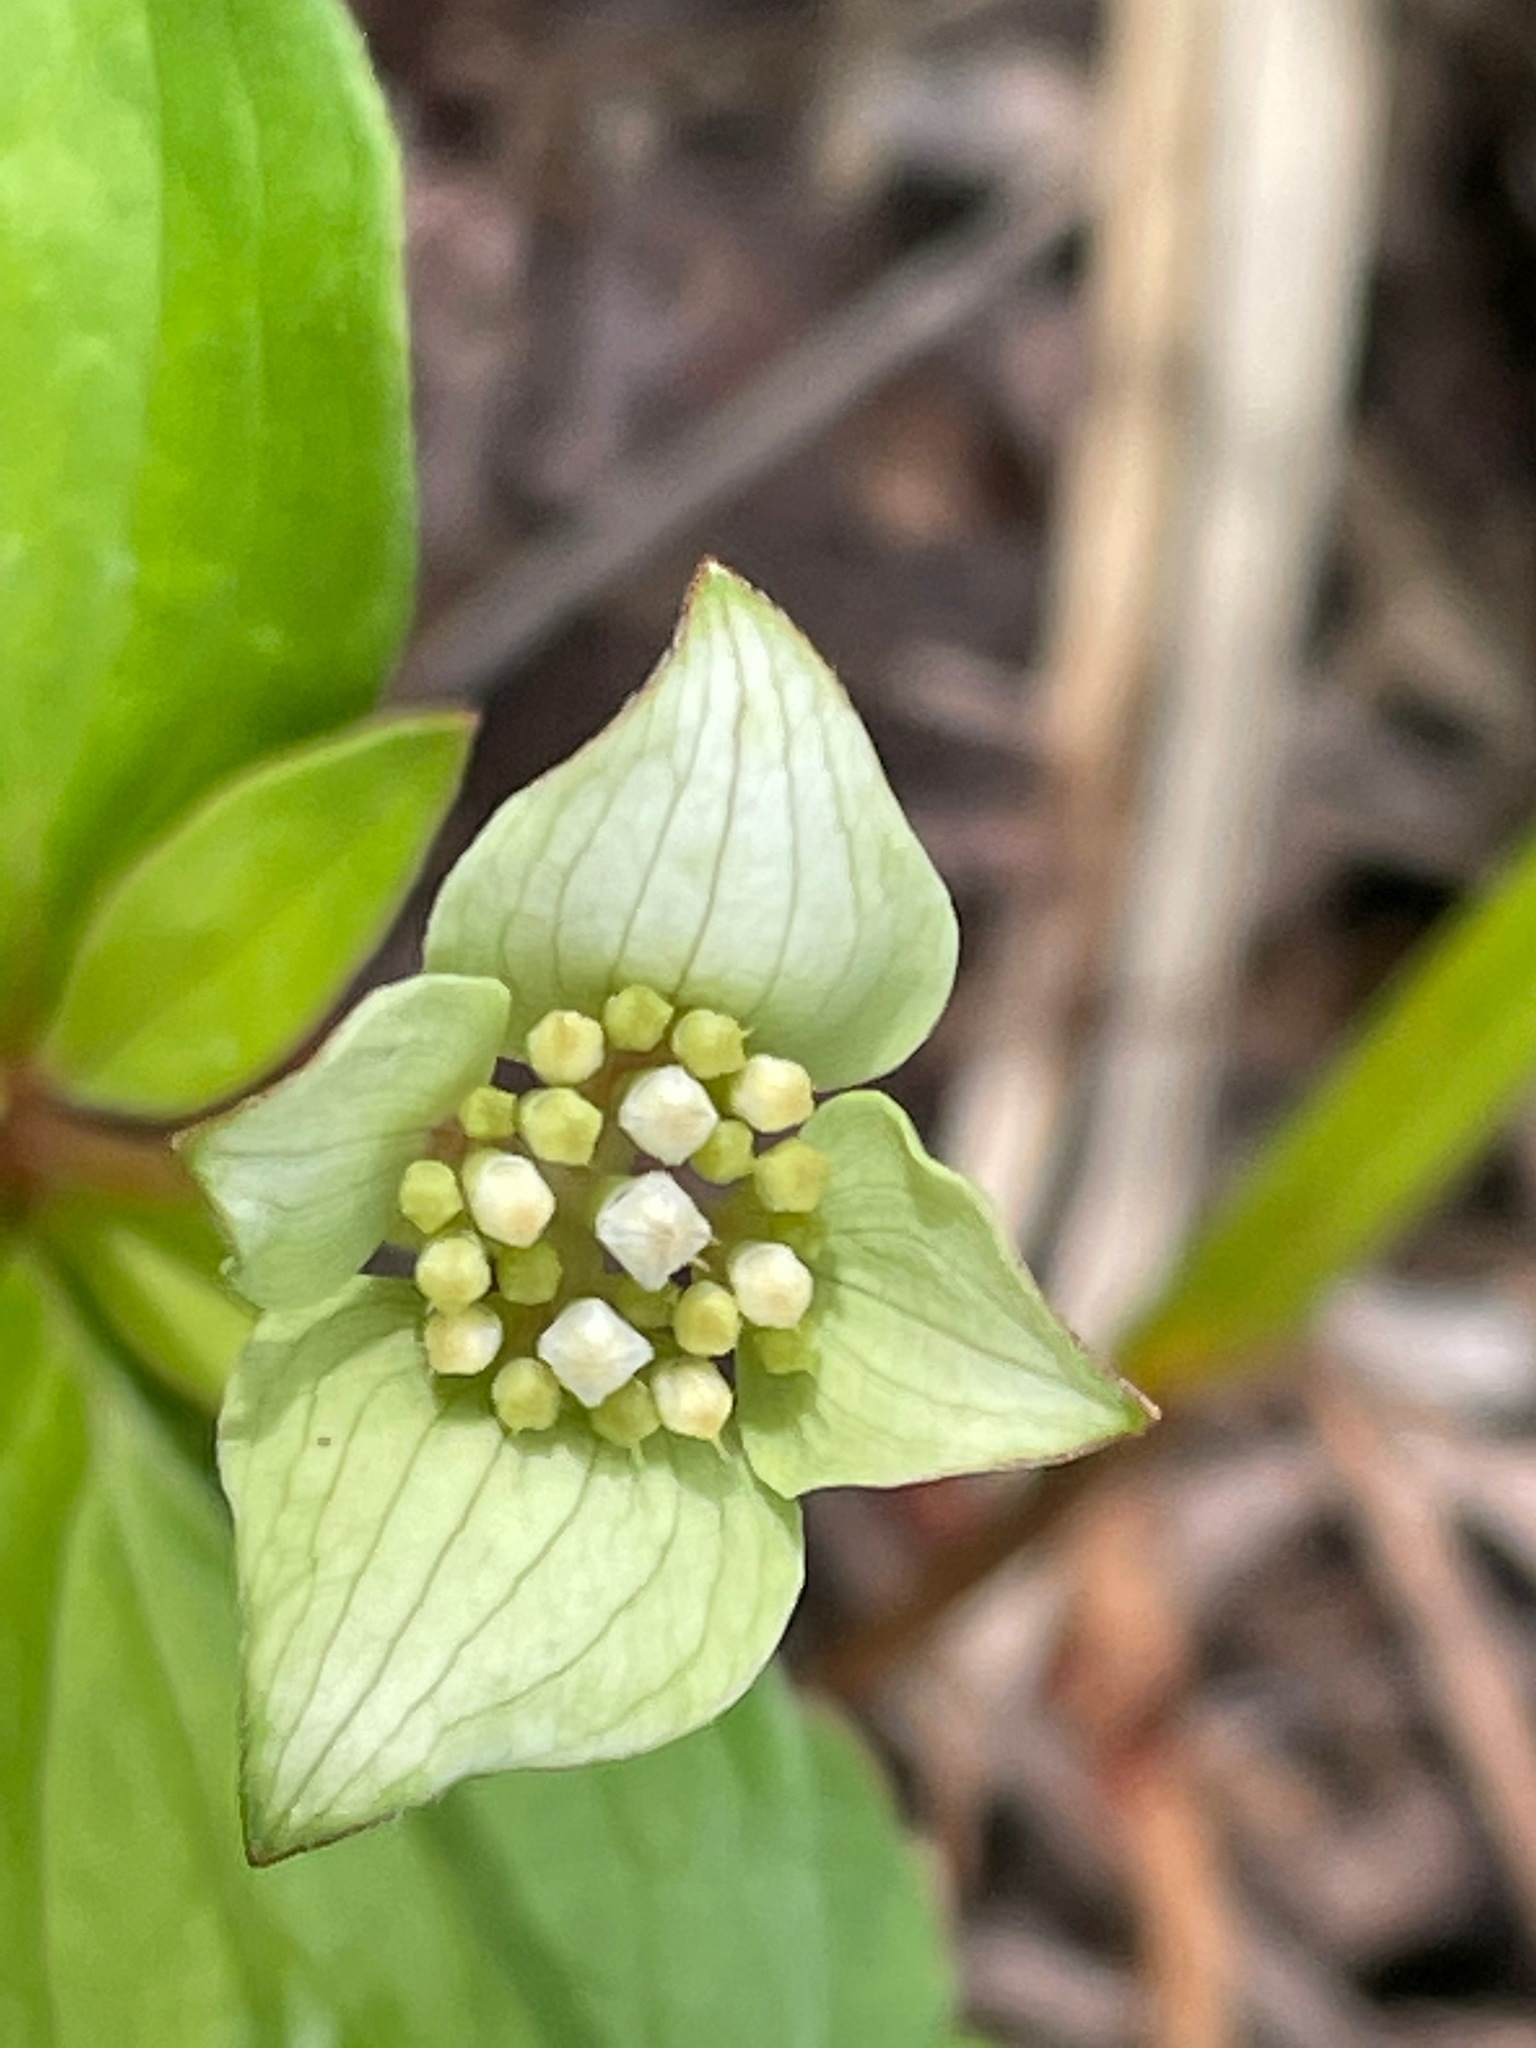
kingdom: Plantae
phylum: Tracheophyta
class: Magnoliopsida
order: Cornales
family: Cornaceae
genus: Cornus
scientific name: Cornus canadensis
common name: Creeping dogwood
